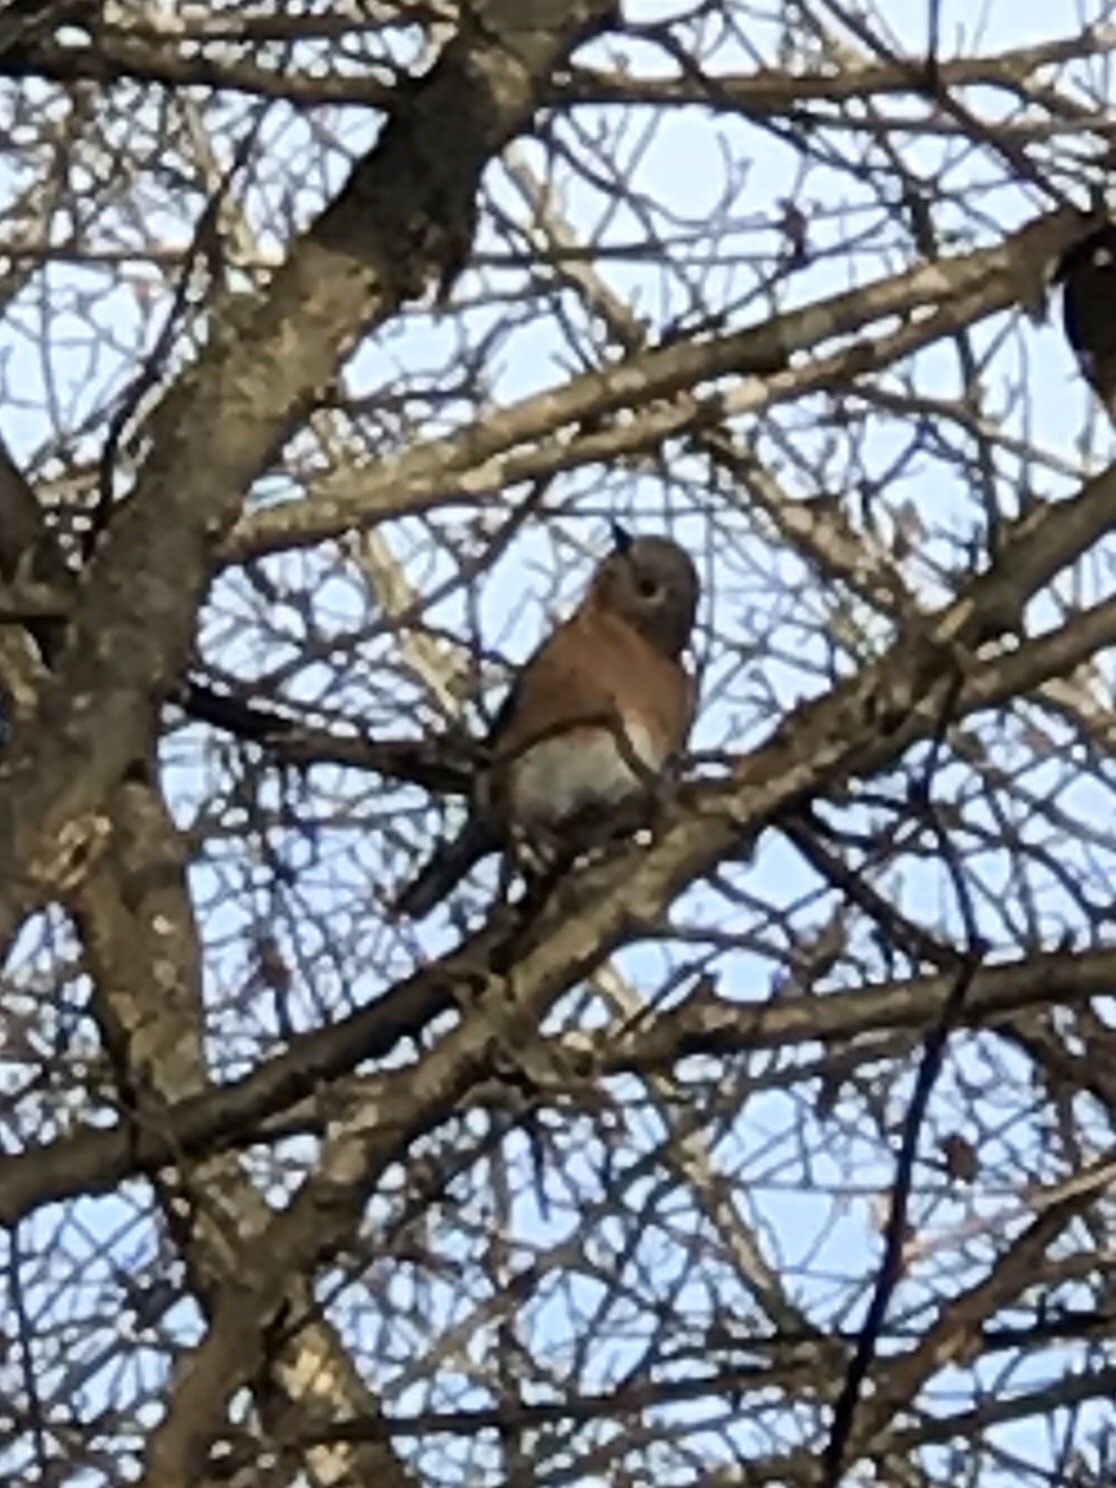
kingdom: Animalia
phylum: Chordata
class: Aves
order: Passeriformes
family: Turdidae
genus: Sialia
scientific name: Sialia sialis
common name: Eastern bluebird
